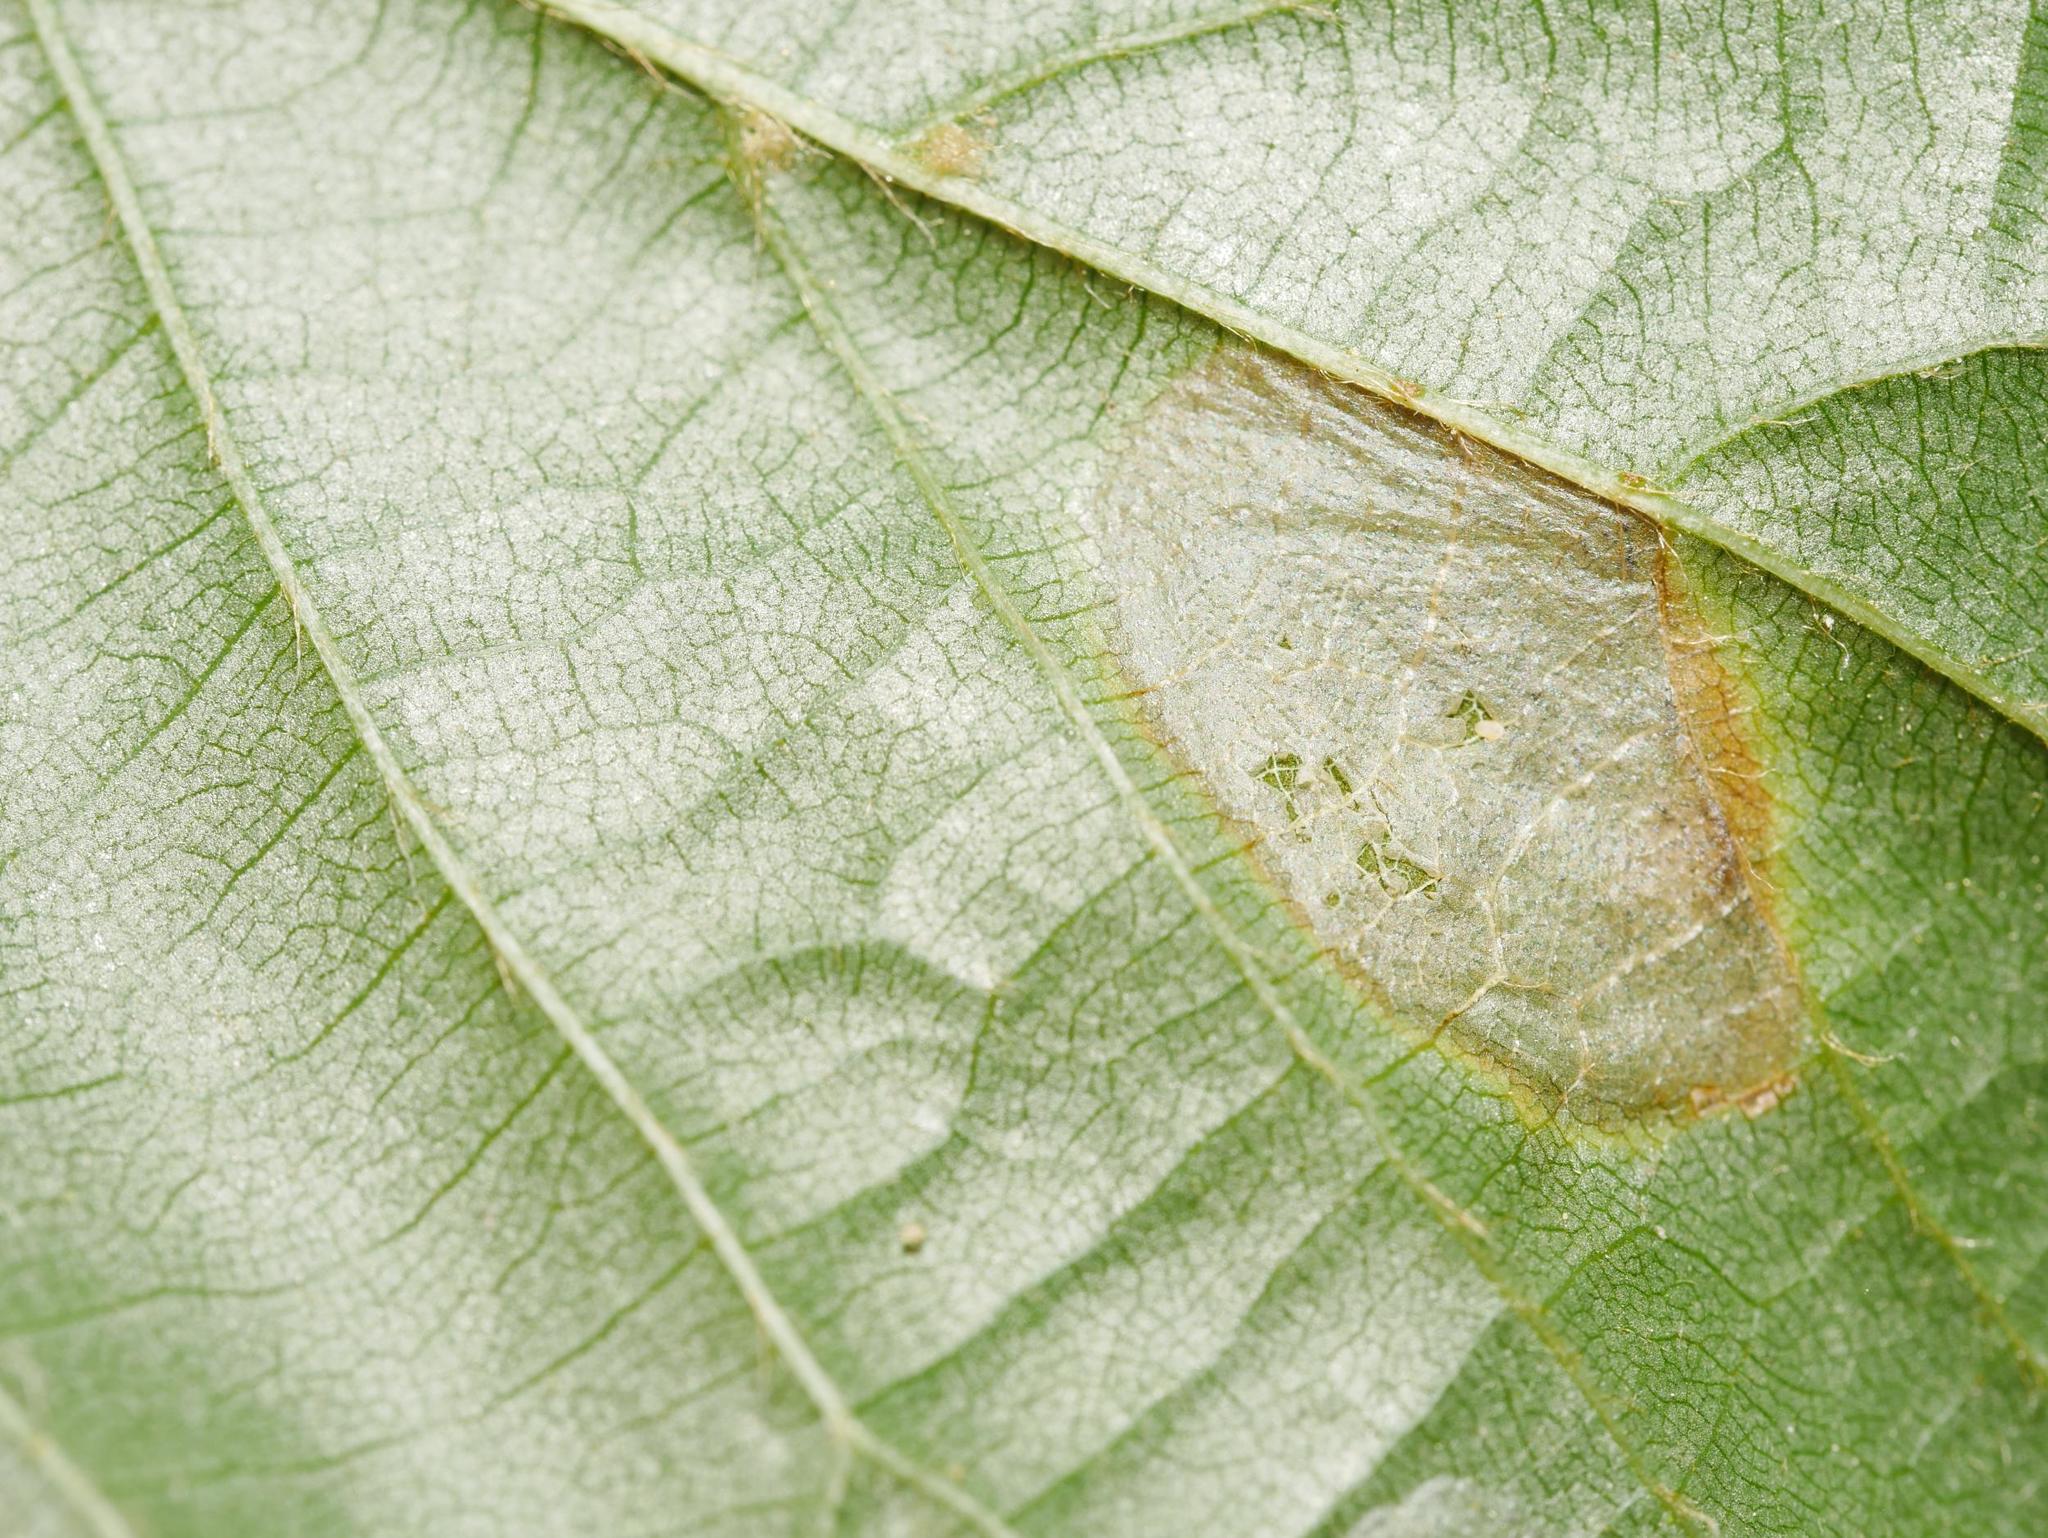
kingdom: Animalia
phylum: Arthropoda
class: Insecta
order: Lepidoptera
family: Gracillariidae
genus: Phyllonorycter
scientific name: Phyllonorycter issikii
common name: Linden midget
